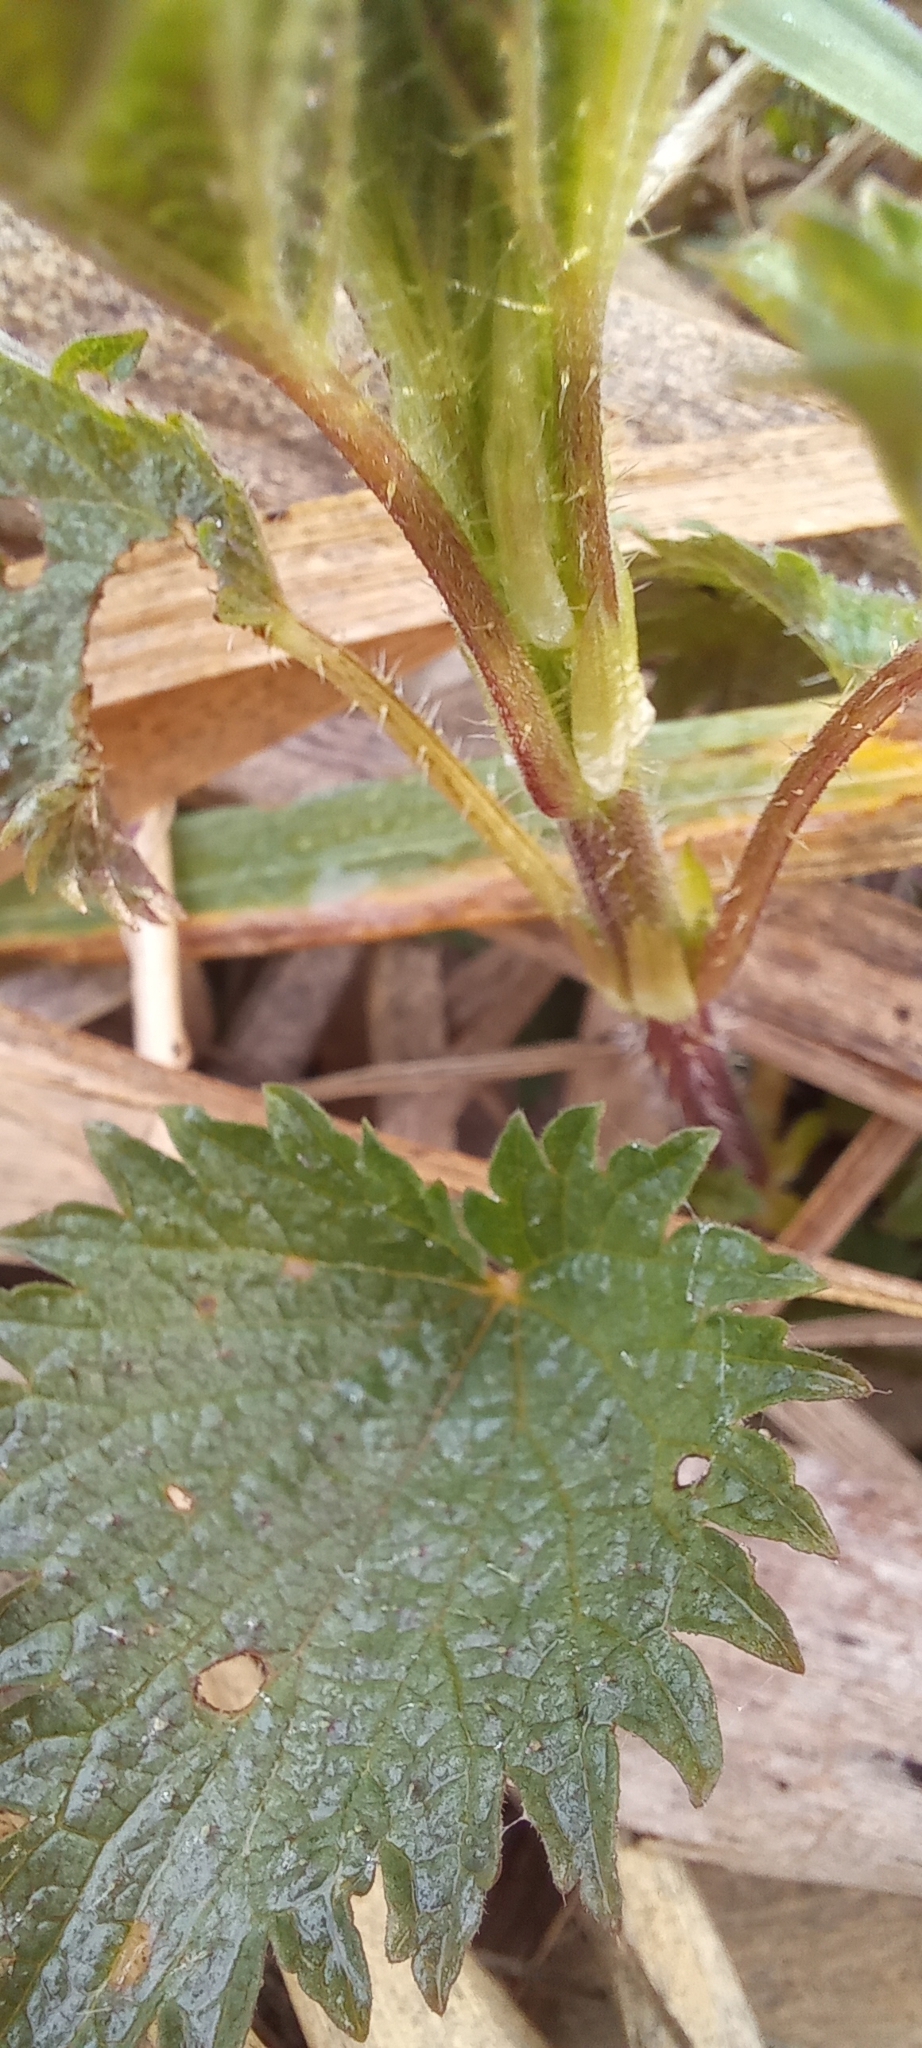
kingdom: Plantae
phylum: Tracheophyta
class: Magnoliopsida
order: Rosales
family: Urticaceae
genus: Urtica
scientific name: Urtica dioica
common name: Common nettle
